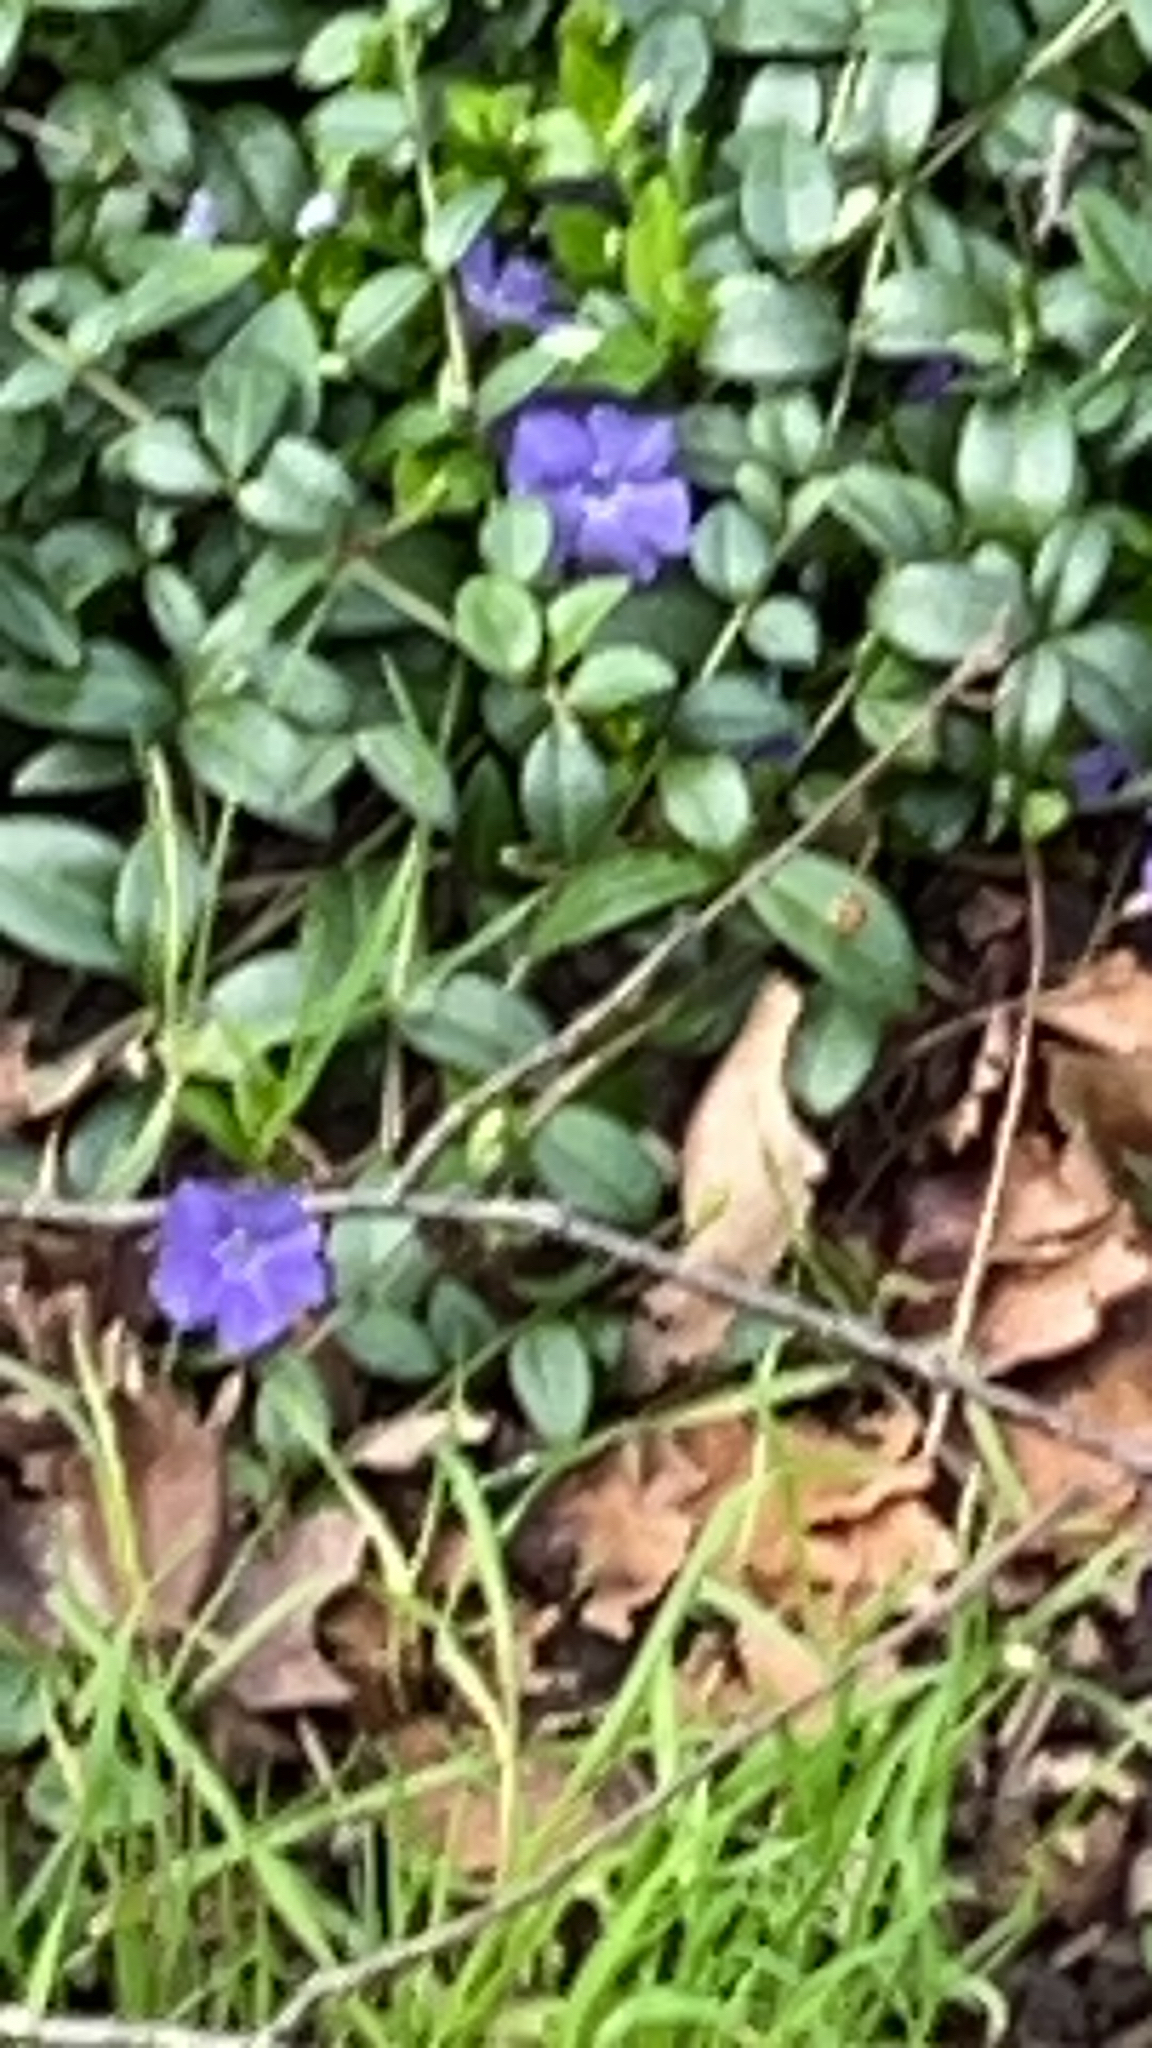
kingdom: Plantae
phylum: Tracheophyta
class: Magnoliopsida
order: Gentianales
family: Apocynaceae
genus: Vinca
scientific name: Vinca minor
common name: Lesser periwinkle
